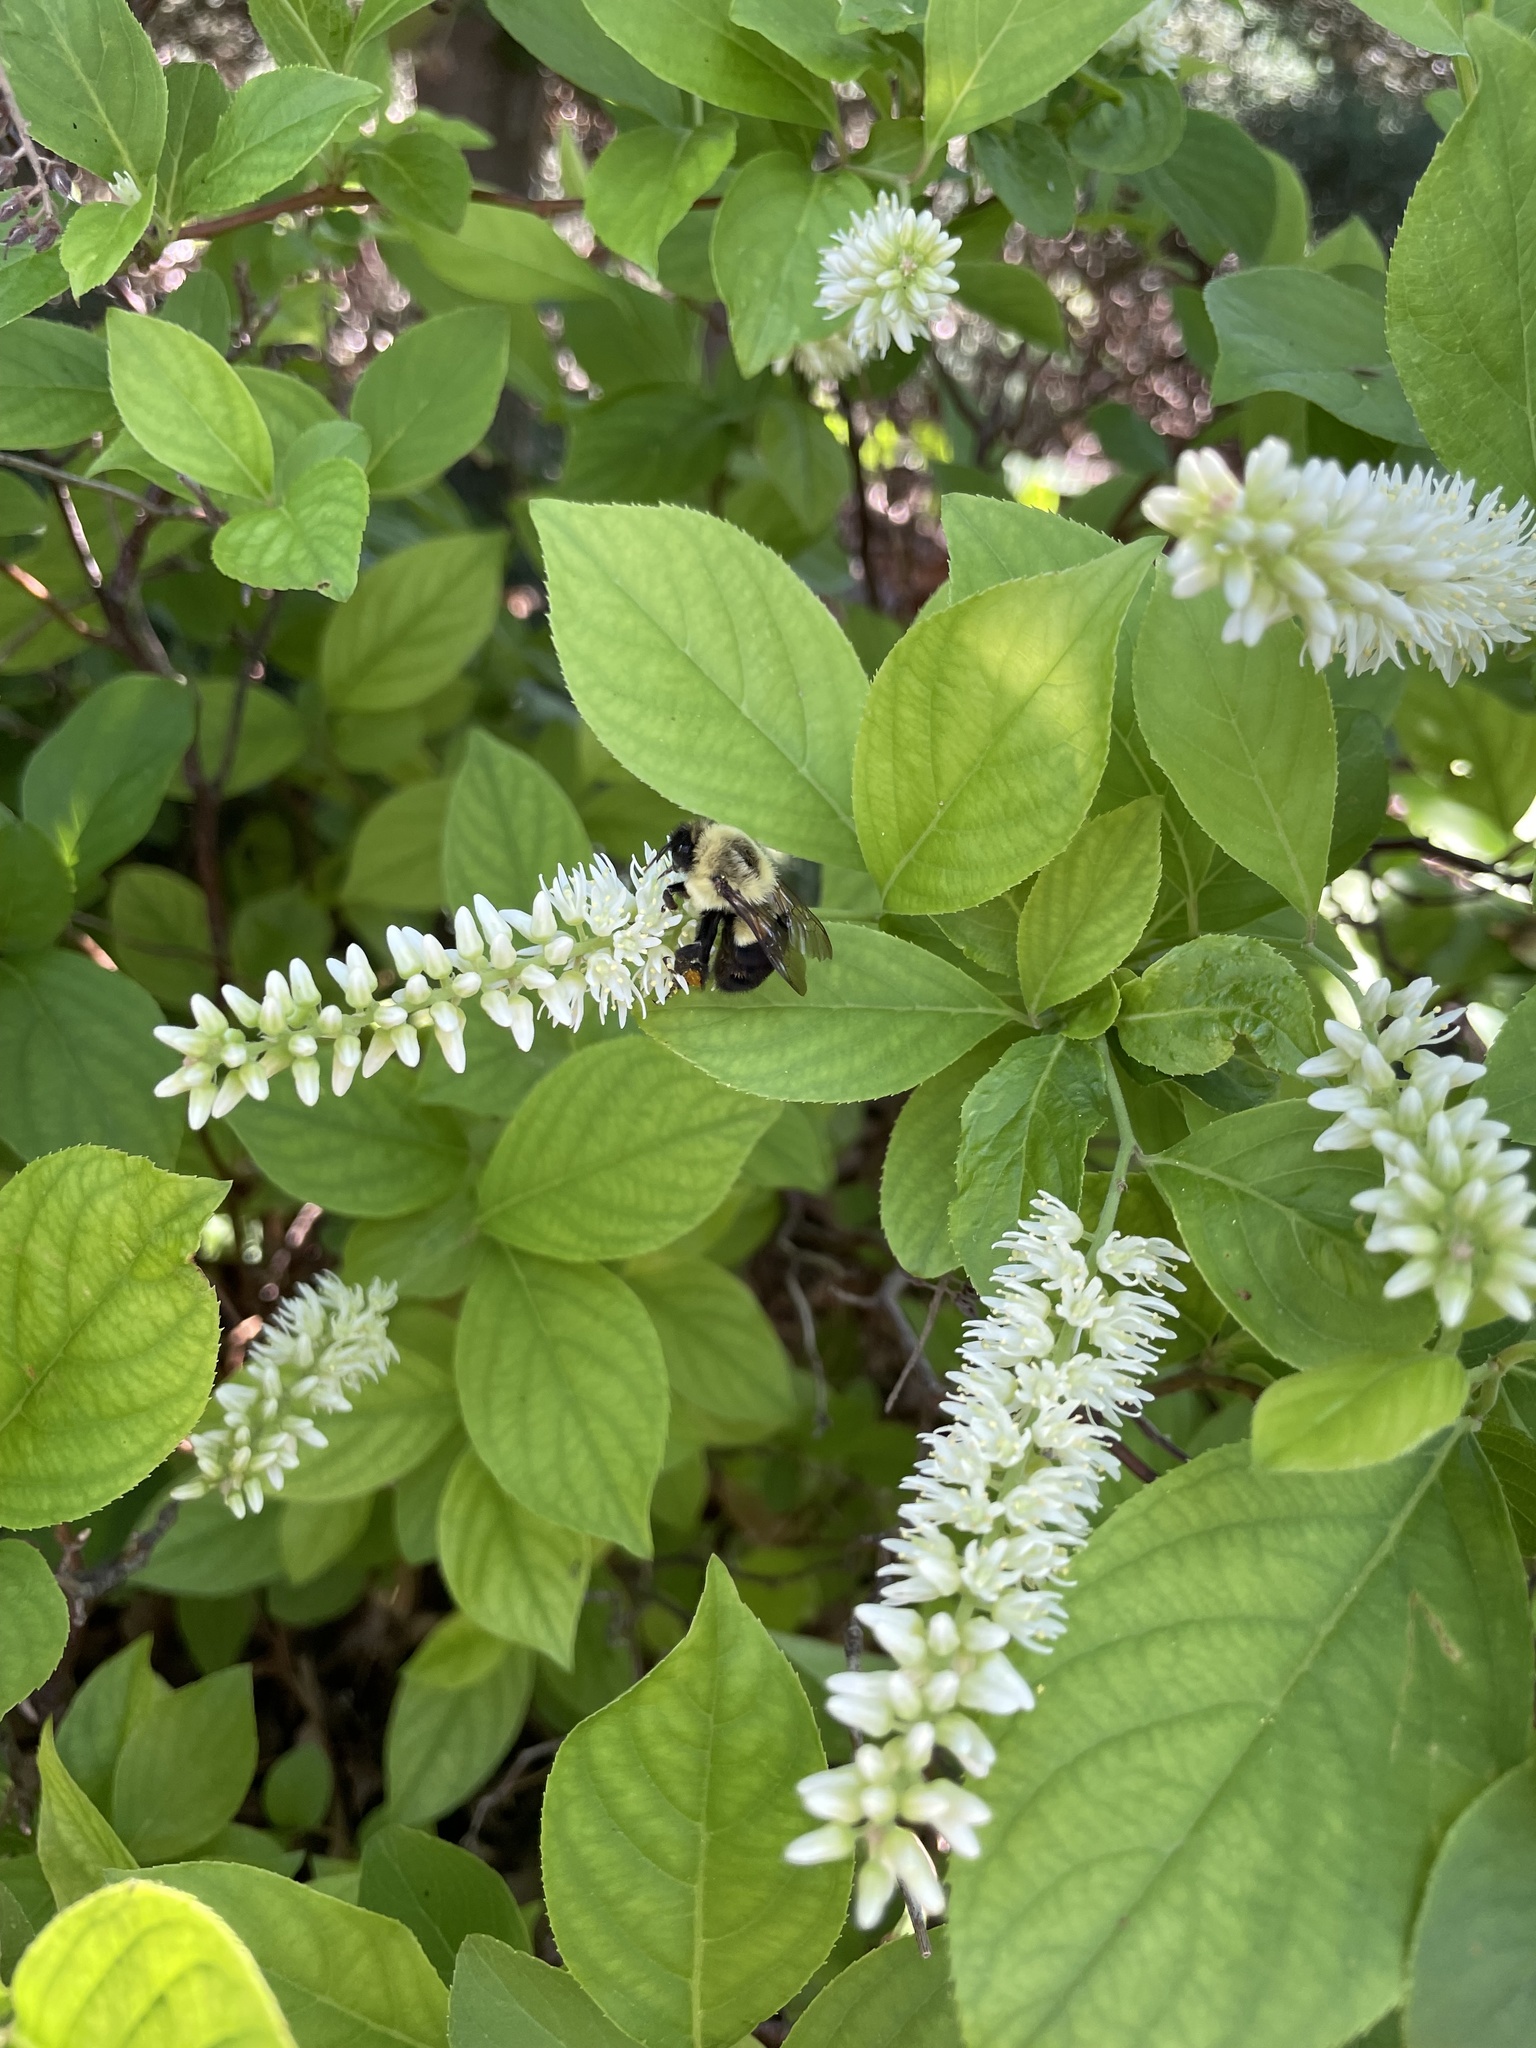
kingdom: Animalia
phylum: Arthropoda
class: Insecta
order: Hymenoptera
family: Apidae
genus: Bombus
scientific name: Bombus impatiens
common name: Common eastern bumble bee
